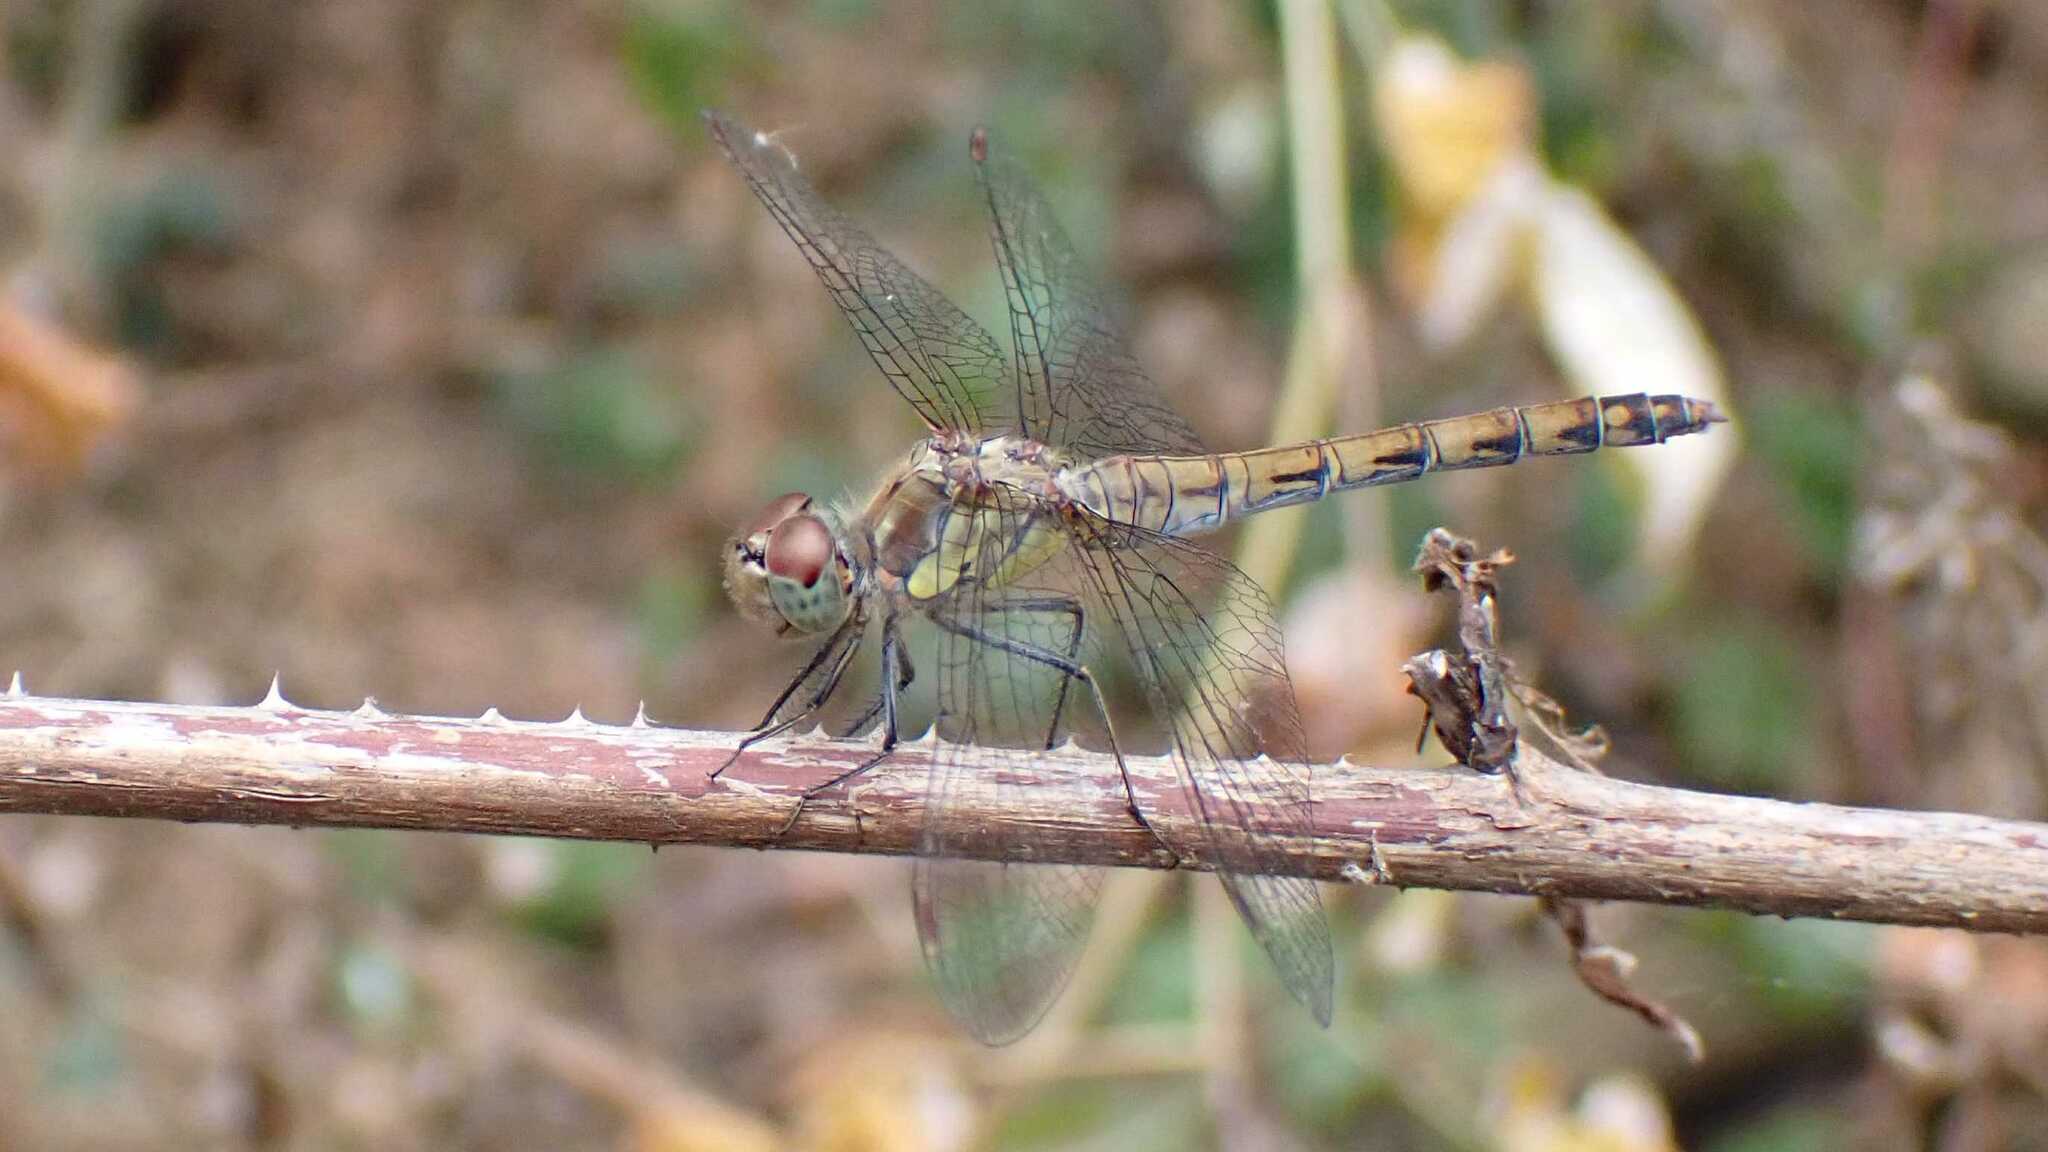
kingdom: Animalia
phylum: Arthropoda
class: Insecta
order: Odonata
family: Libellulidae
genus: Sympetrum
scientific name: Sympetrum striolatum
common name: Common darter
